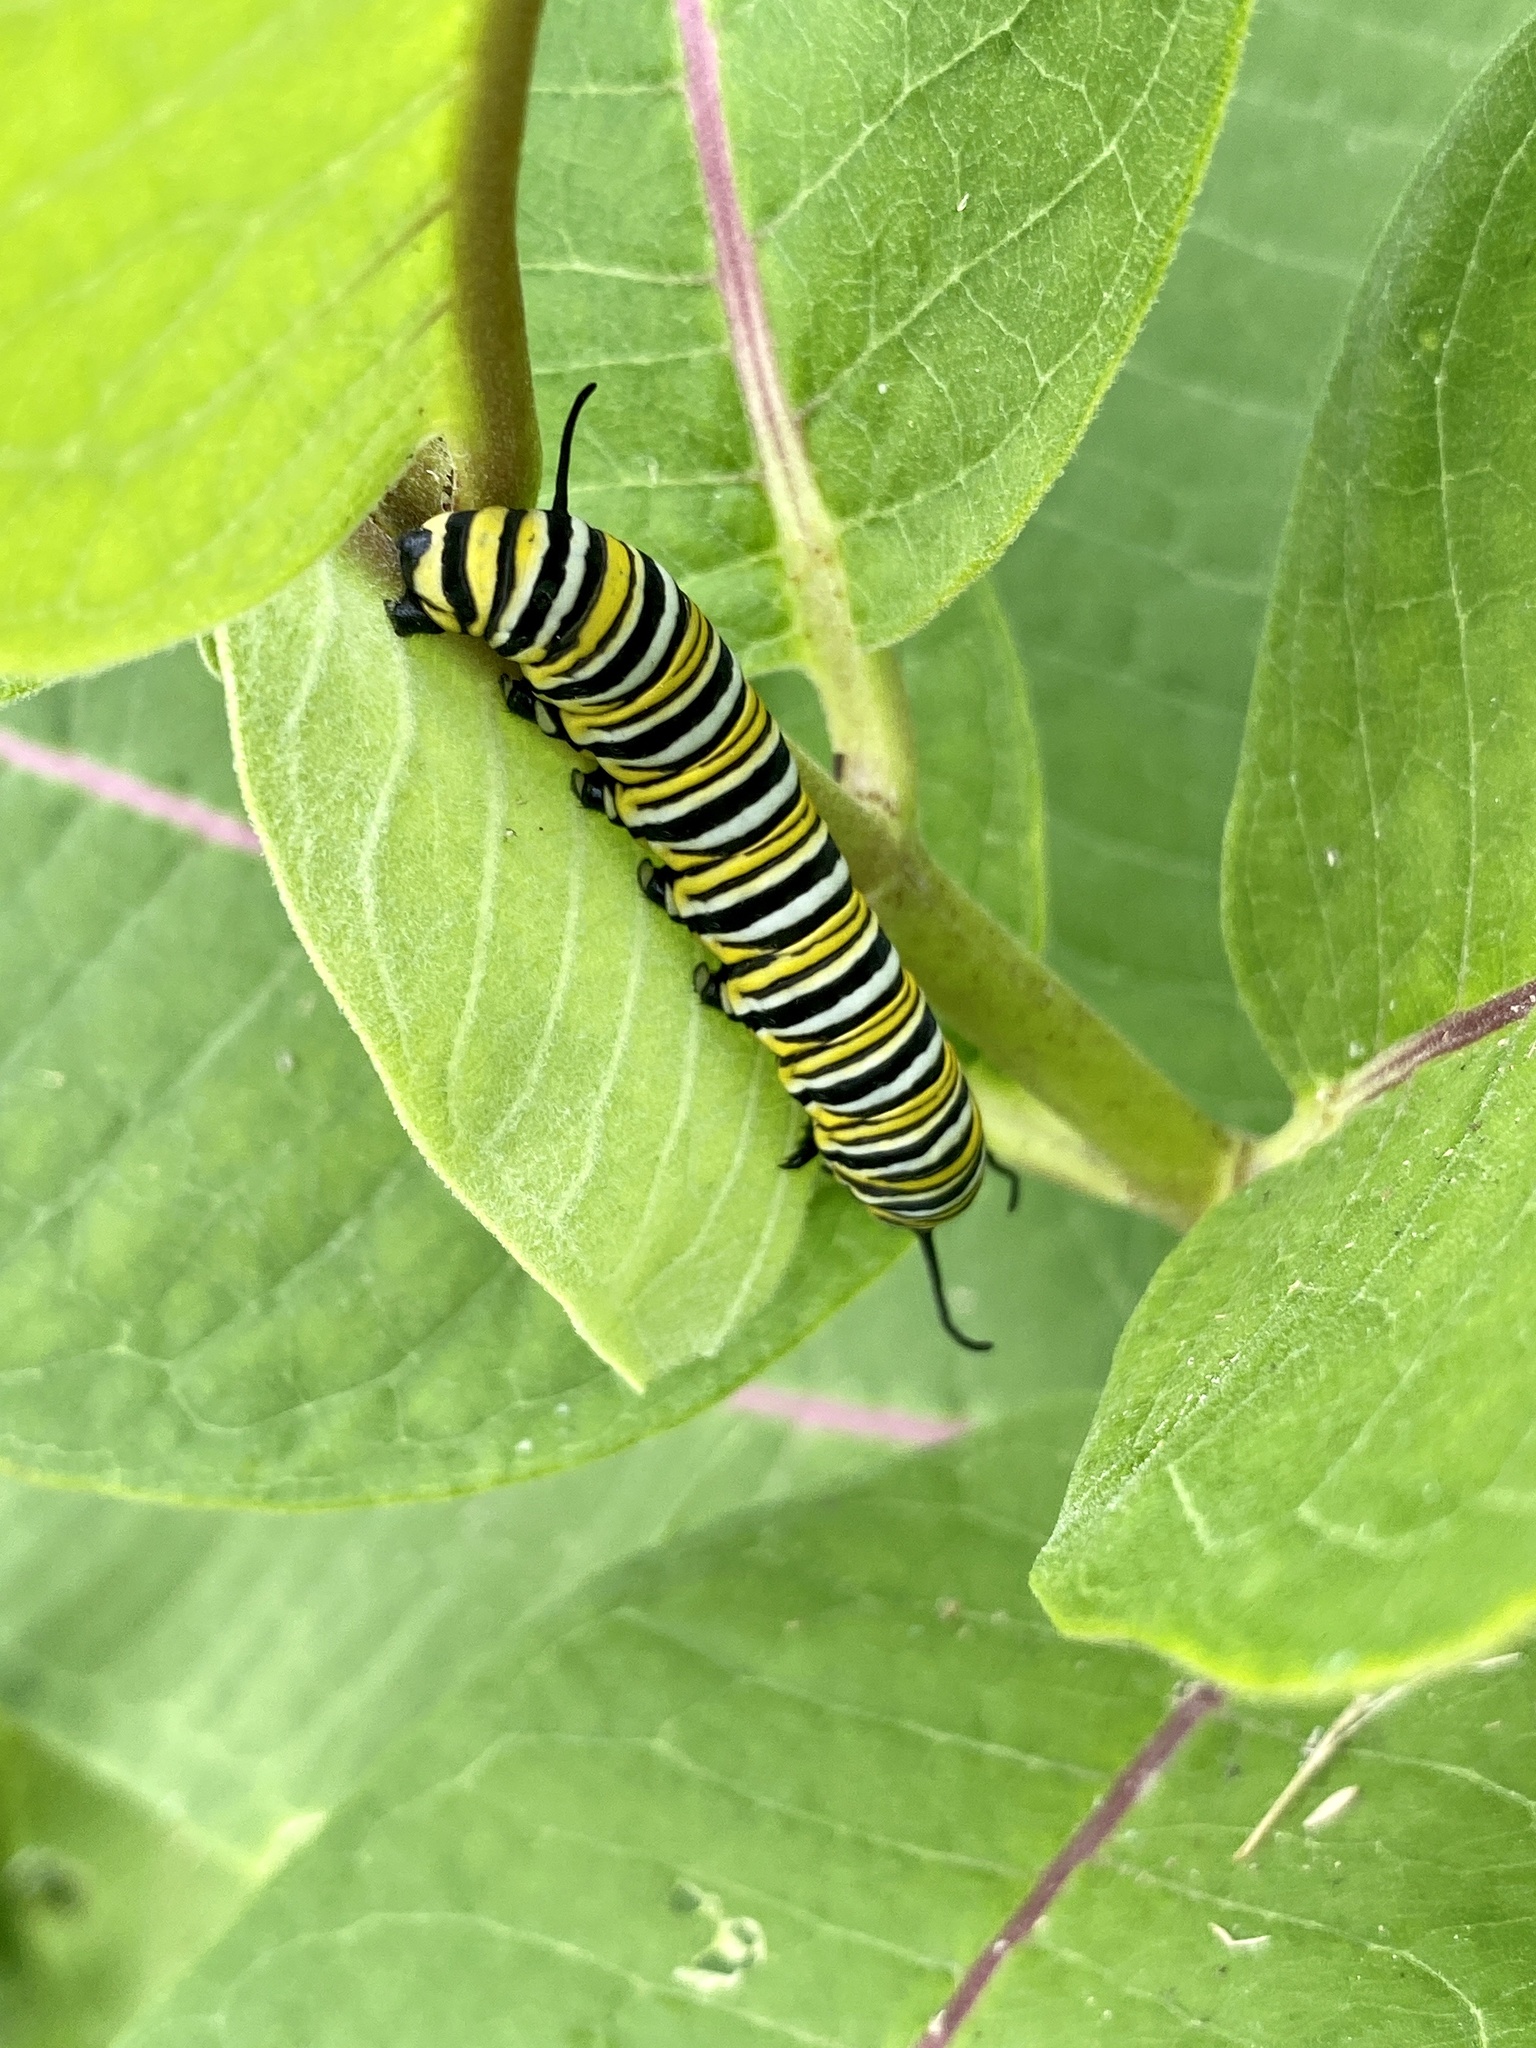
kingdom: Animalia
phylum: Arthropoda
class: Insecta
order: Lepidoptera
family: Nymphalidae
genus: Danaus
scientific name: Danaus plexippus
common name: Monarch
